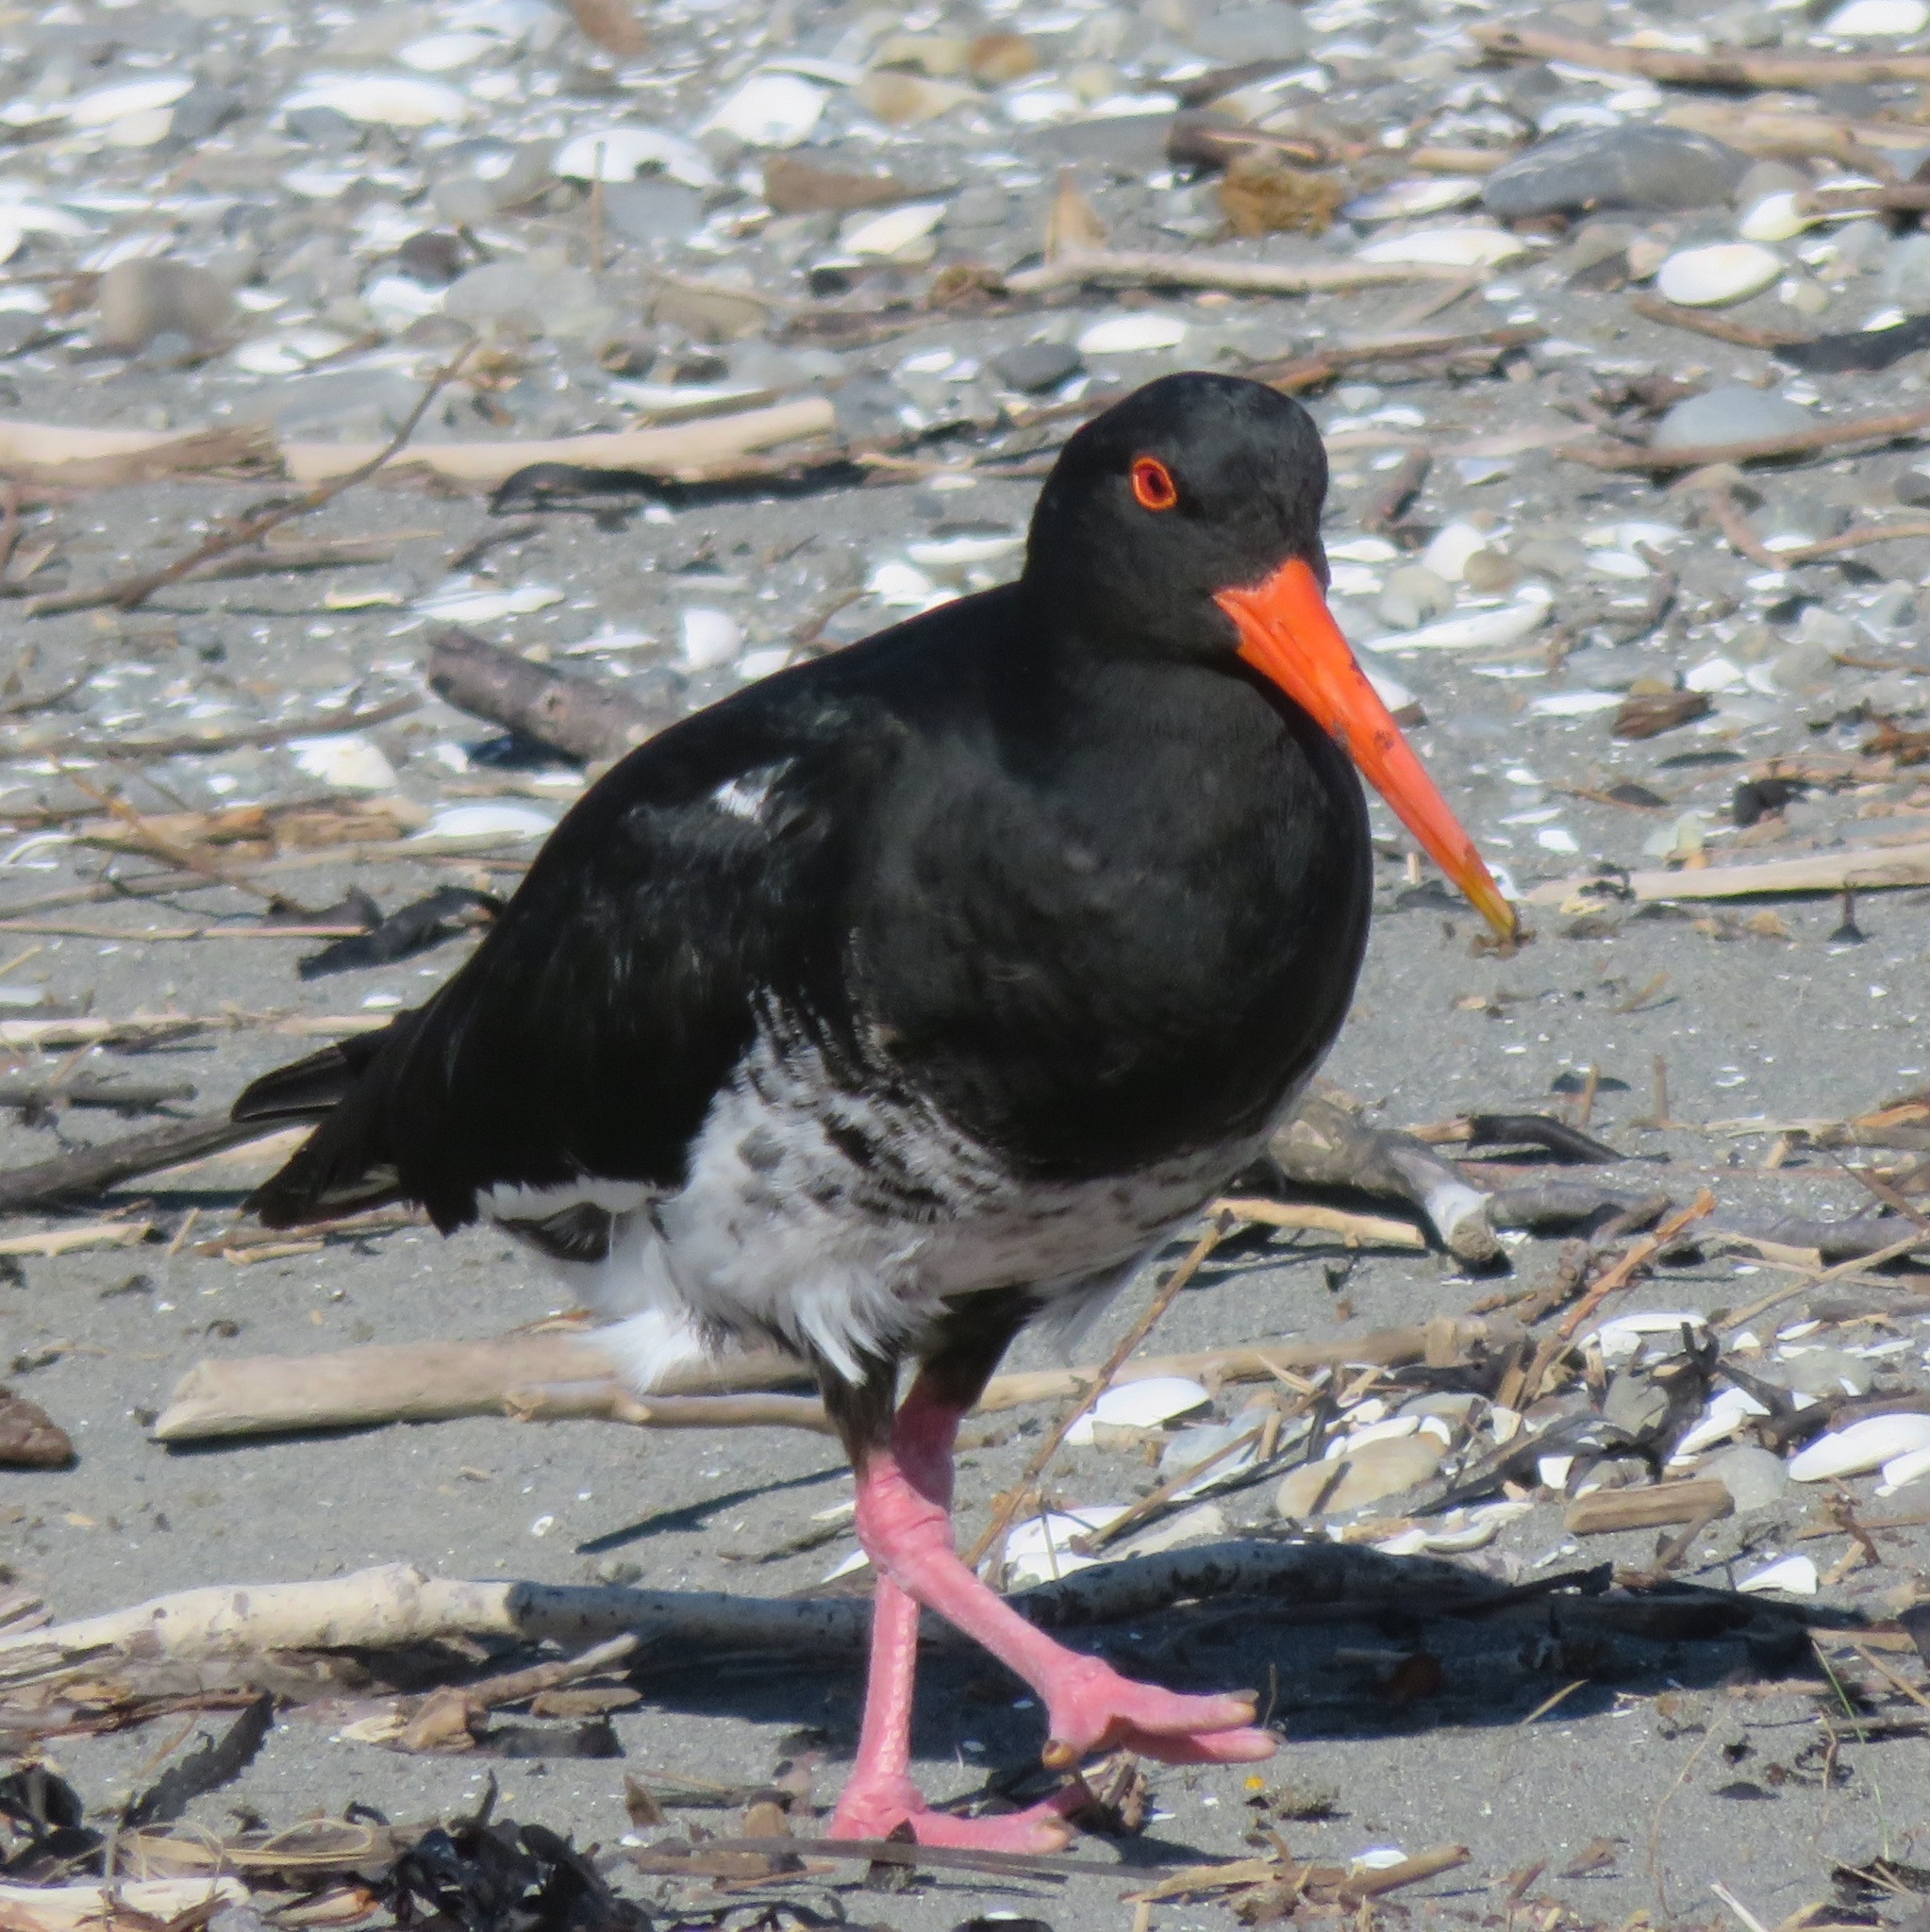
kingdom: Animalia
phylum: Chordata
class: Aves
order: Charadriiformes
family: Haematopodidae
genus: Haematopus
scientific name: Haematopus unicolor
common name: Variable oystercatcher
